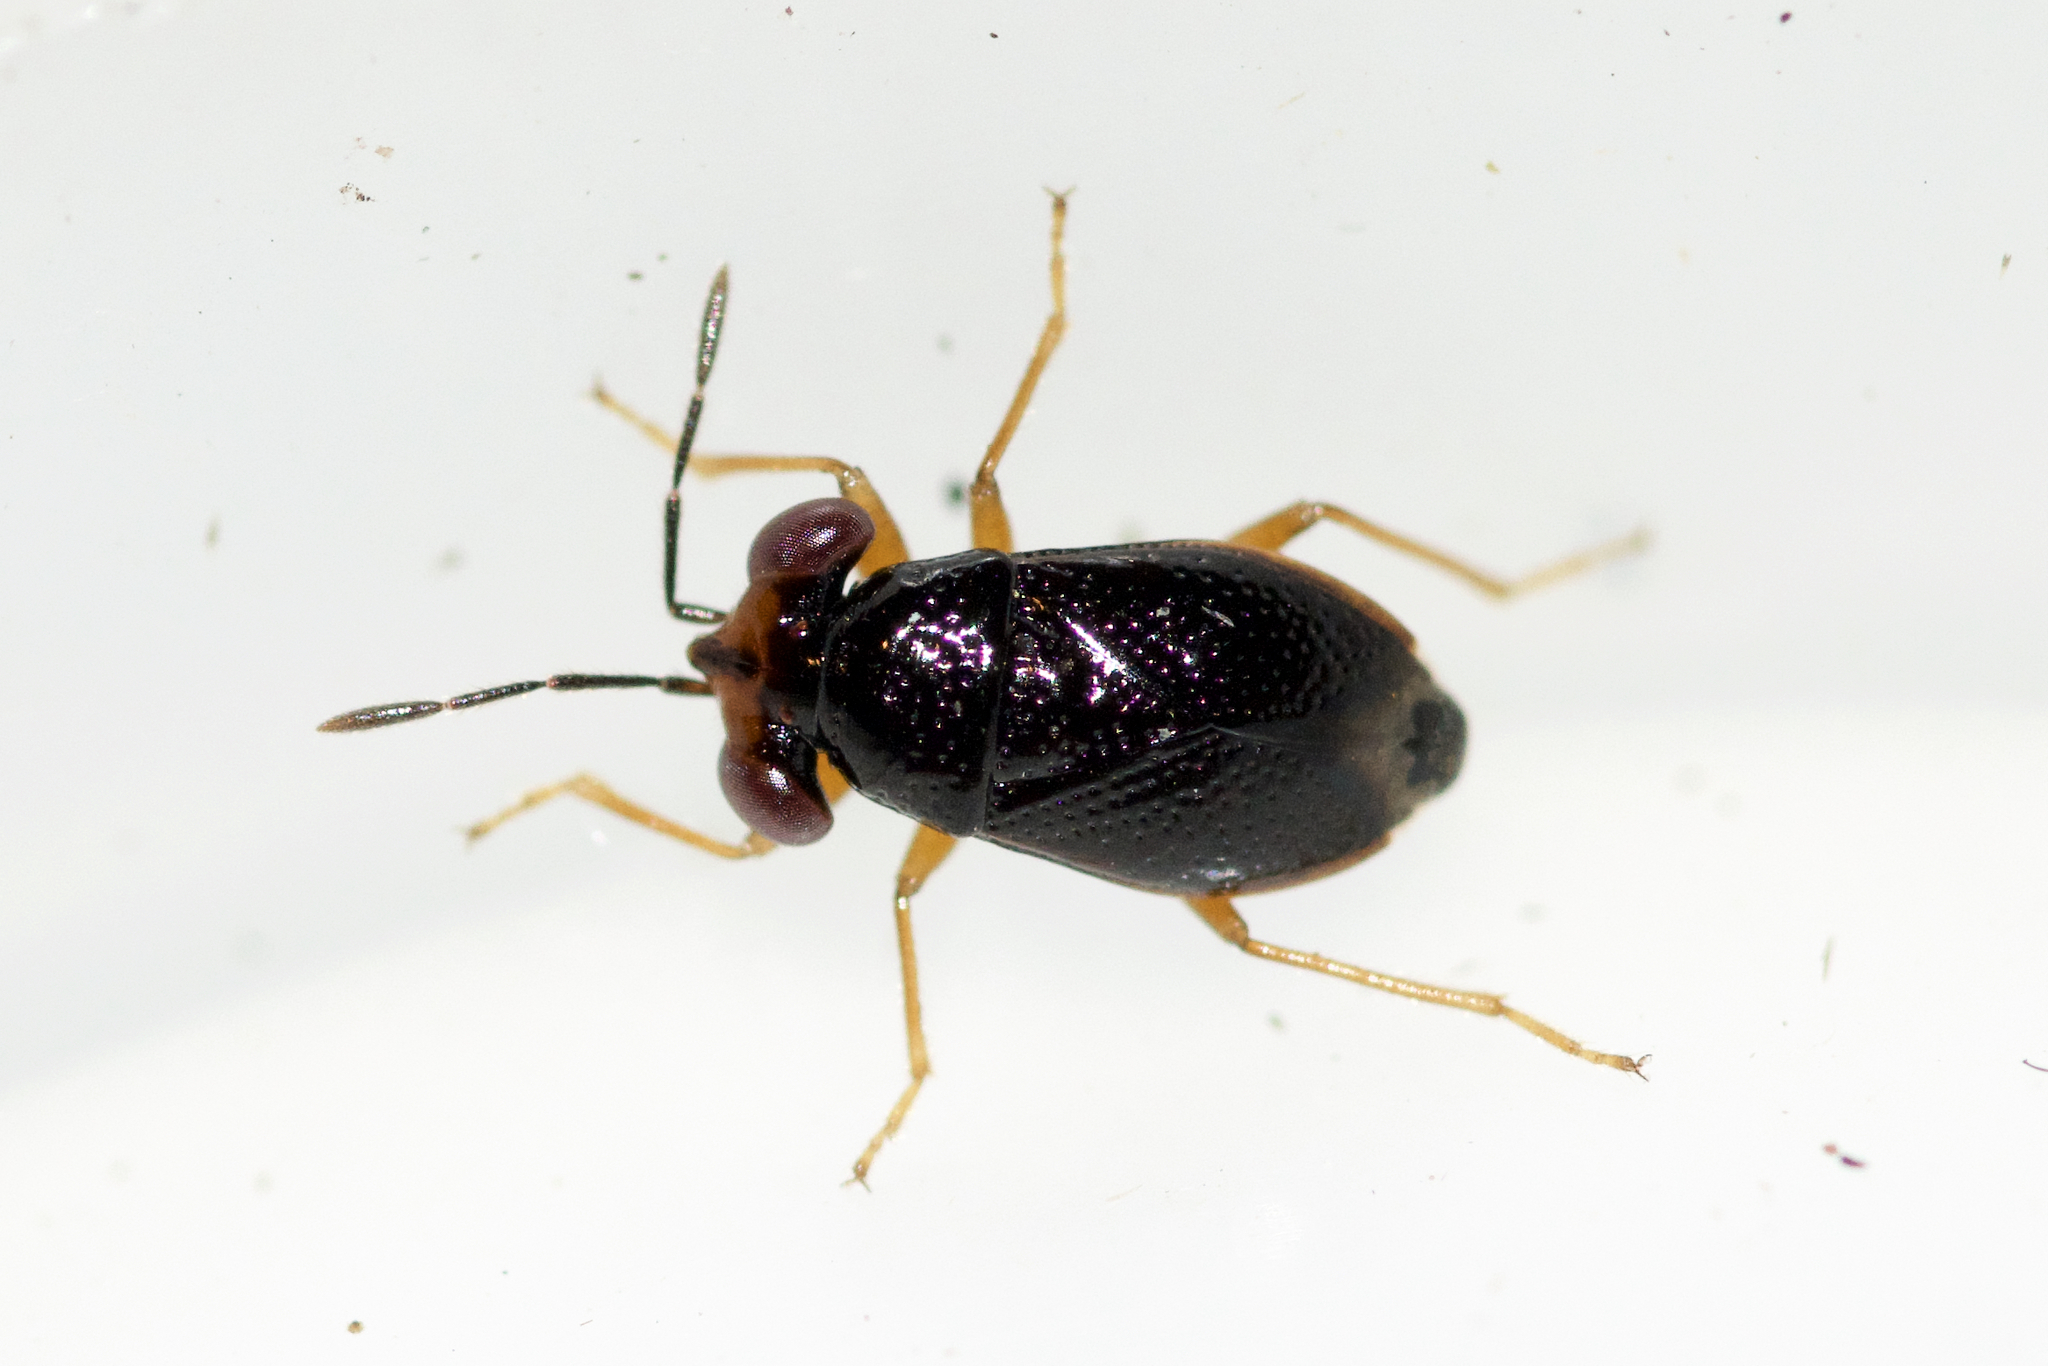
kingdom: Animalia
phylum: Arthropoda
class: Insecta
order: Hemiptera
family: Geocoridae
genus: Isthmocoris
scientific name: Isthmocoris piceus
